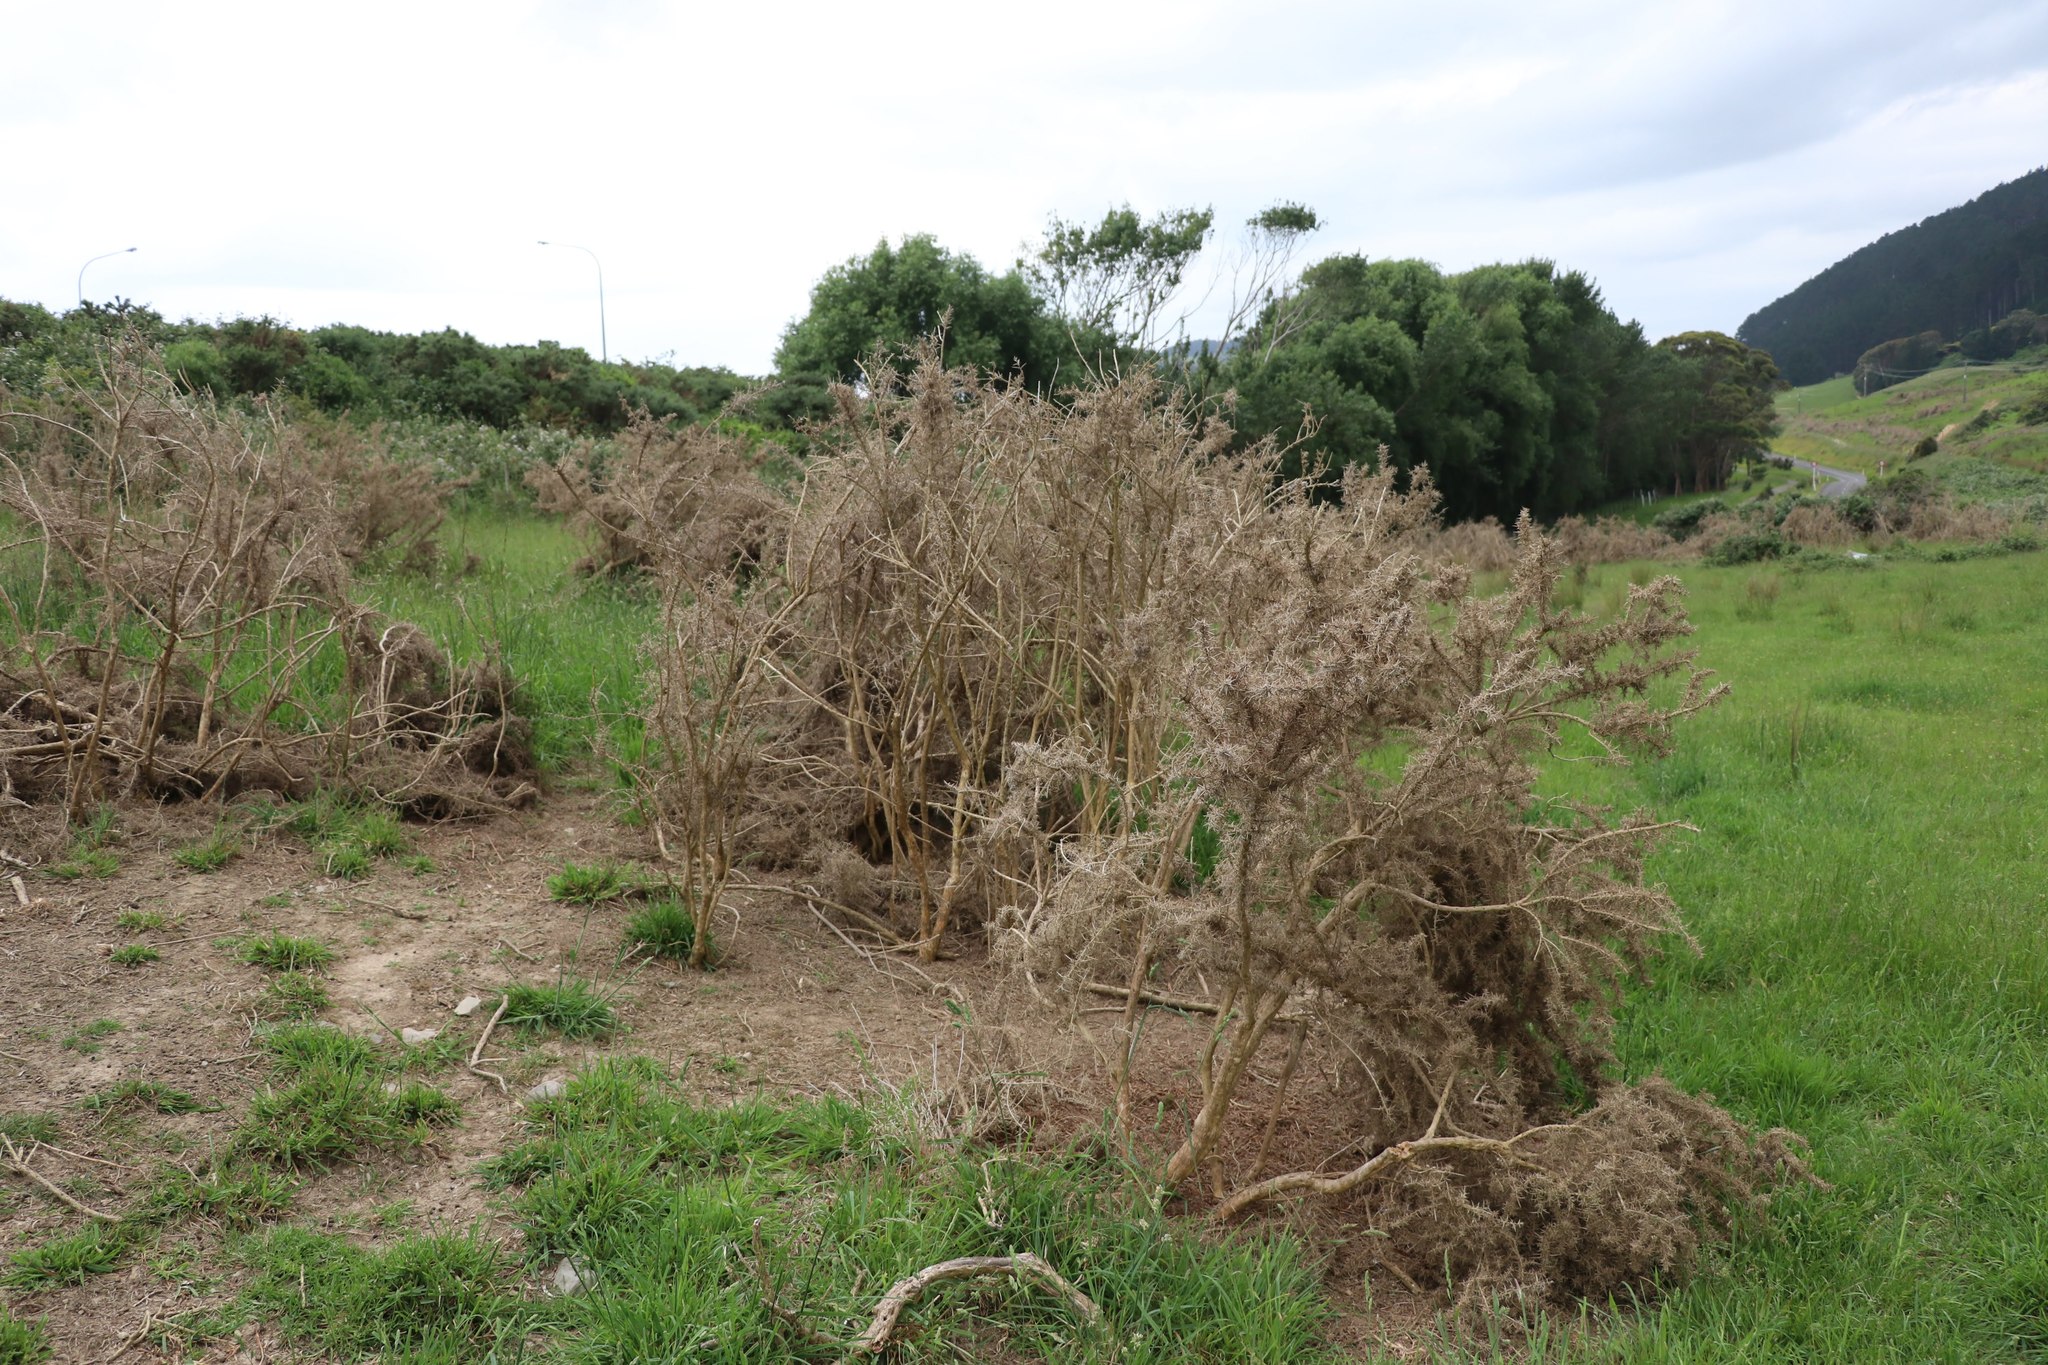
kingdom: Plantae
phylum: Tracheophyta
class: Magnoliopsida
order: Fabales
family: Fabaceae
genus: Ulex
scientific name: Ulex europaeus
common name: Common gorse
